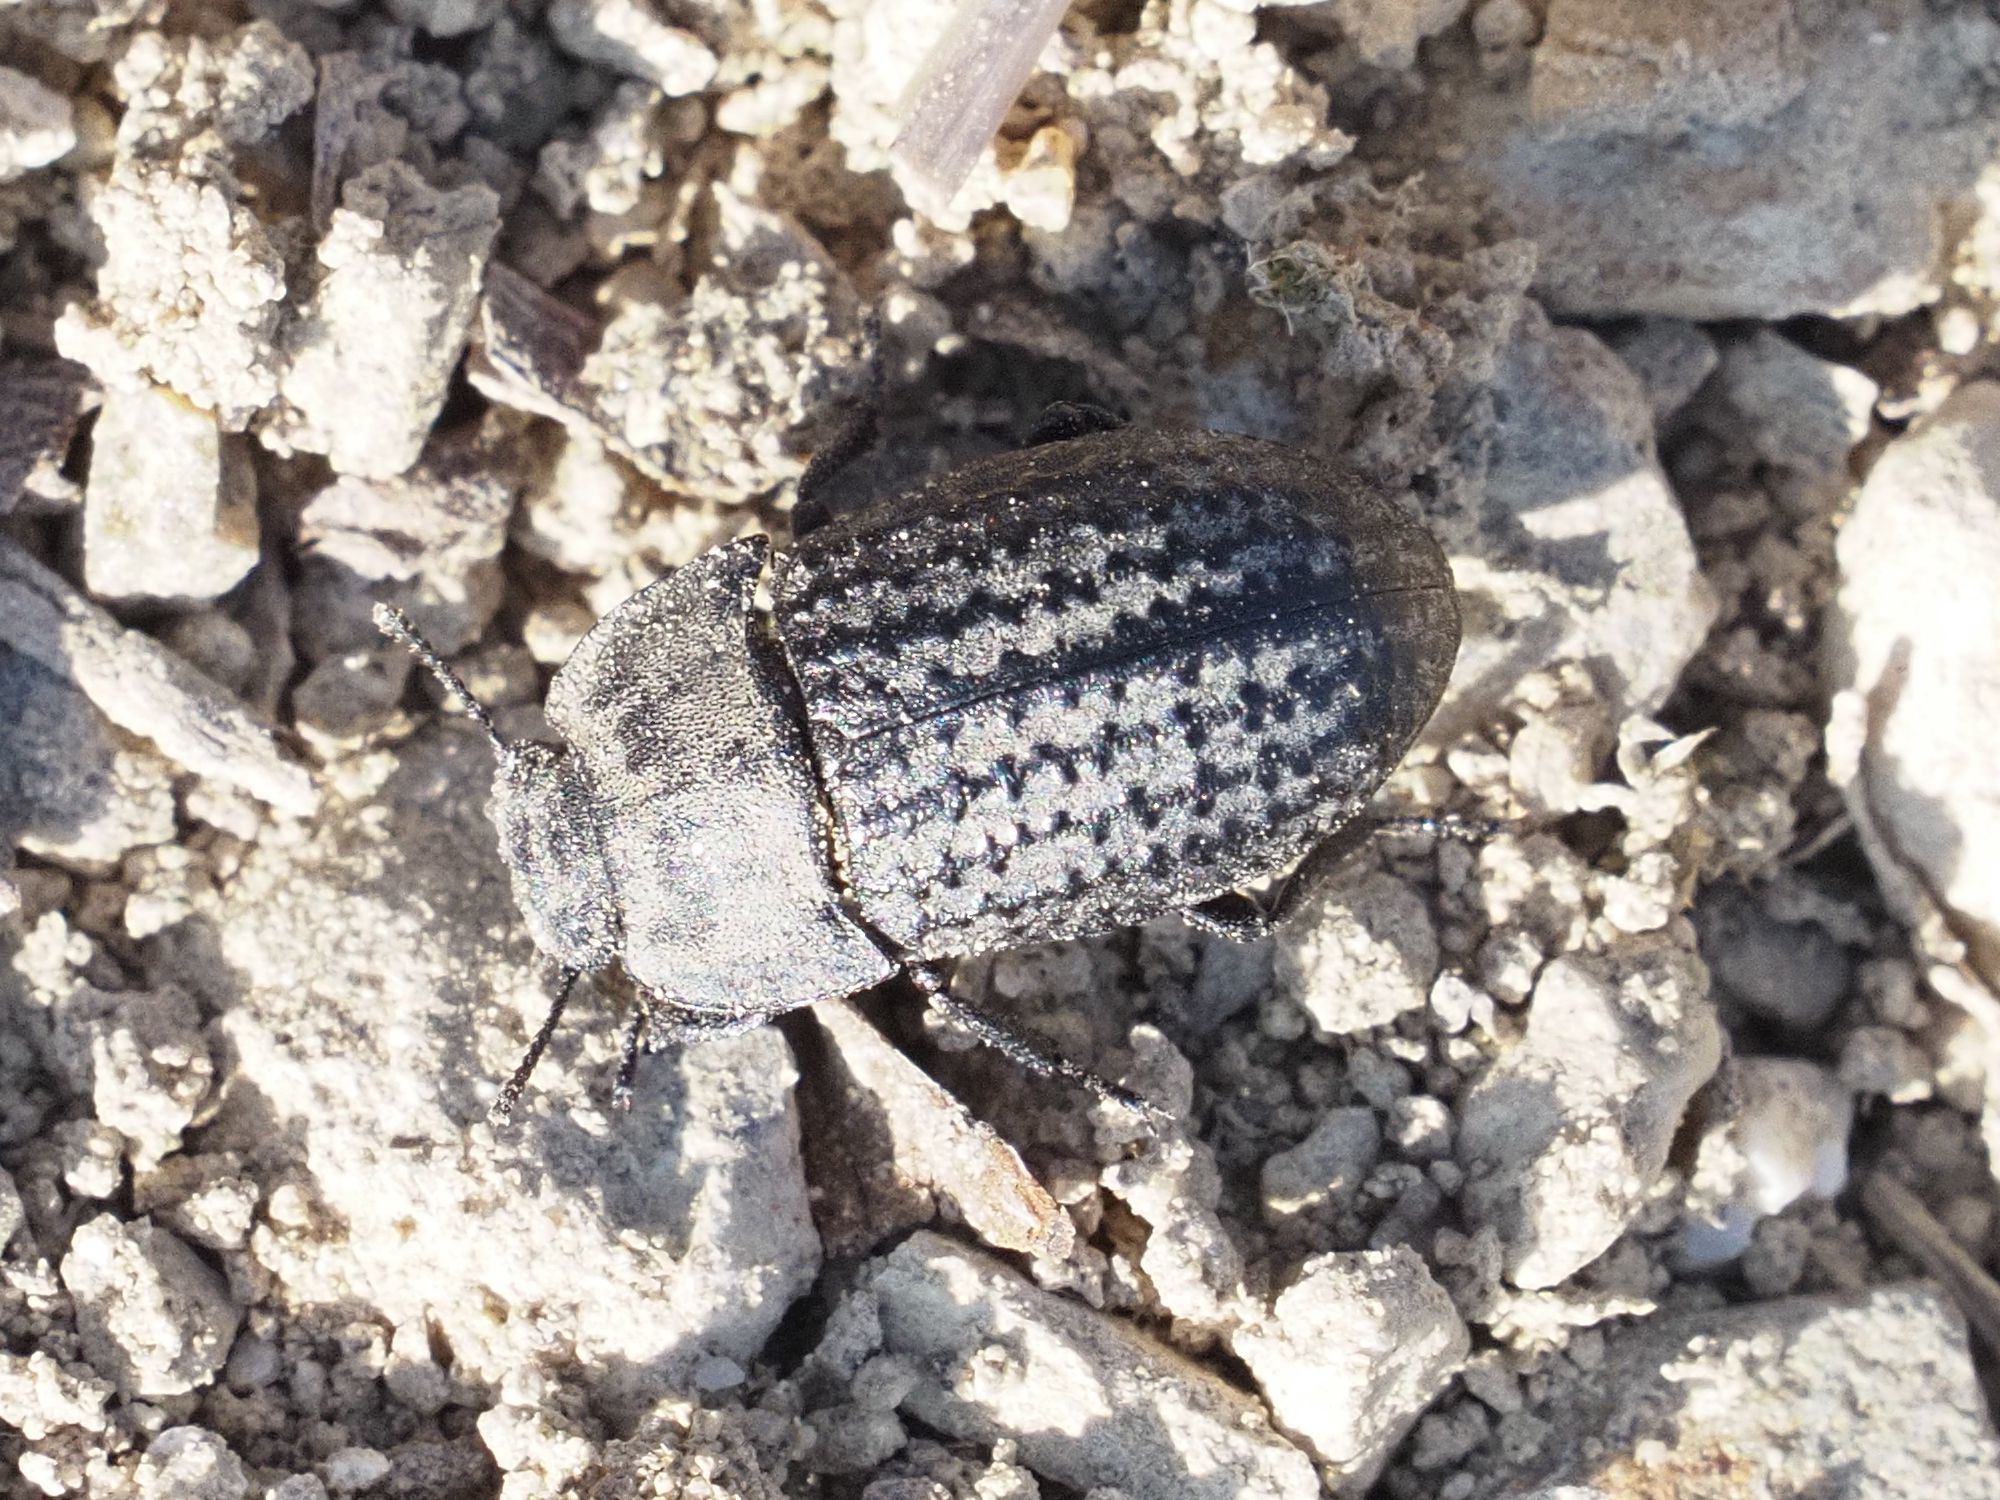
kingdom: Animalia
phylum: Arthropoda
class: Insecta
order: Coleoptera
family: Tenebrionidae
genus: Opatrum
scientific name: Opatrum sabulosum
